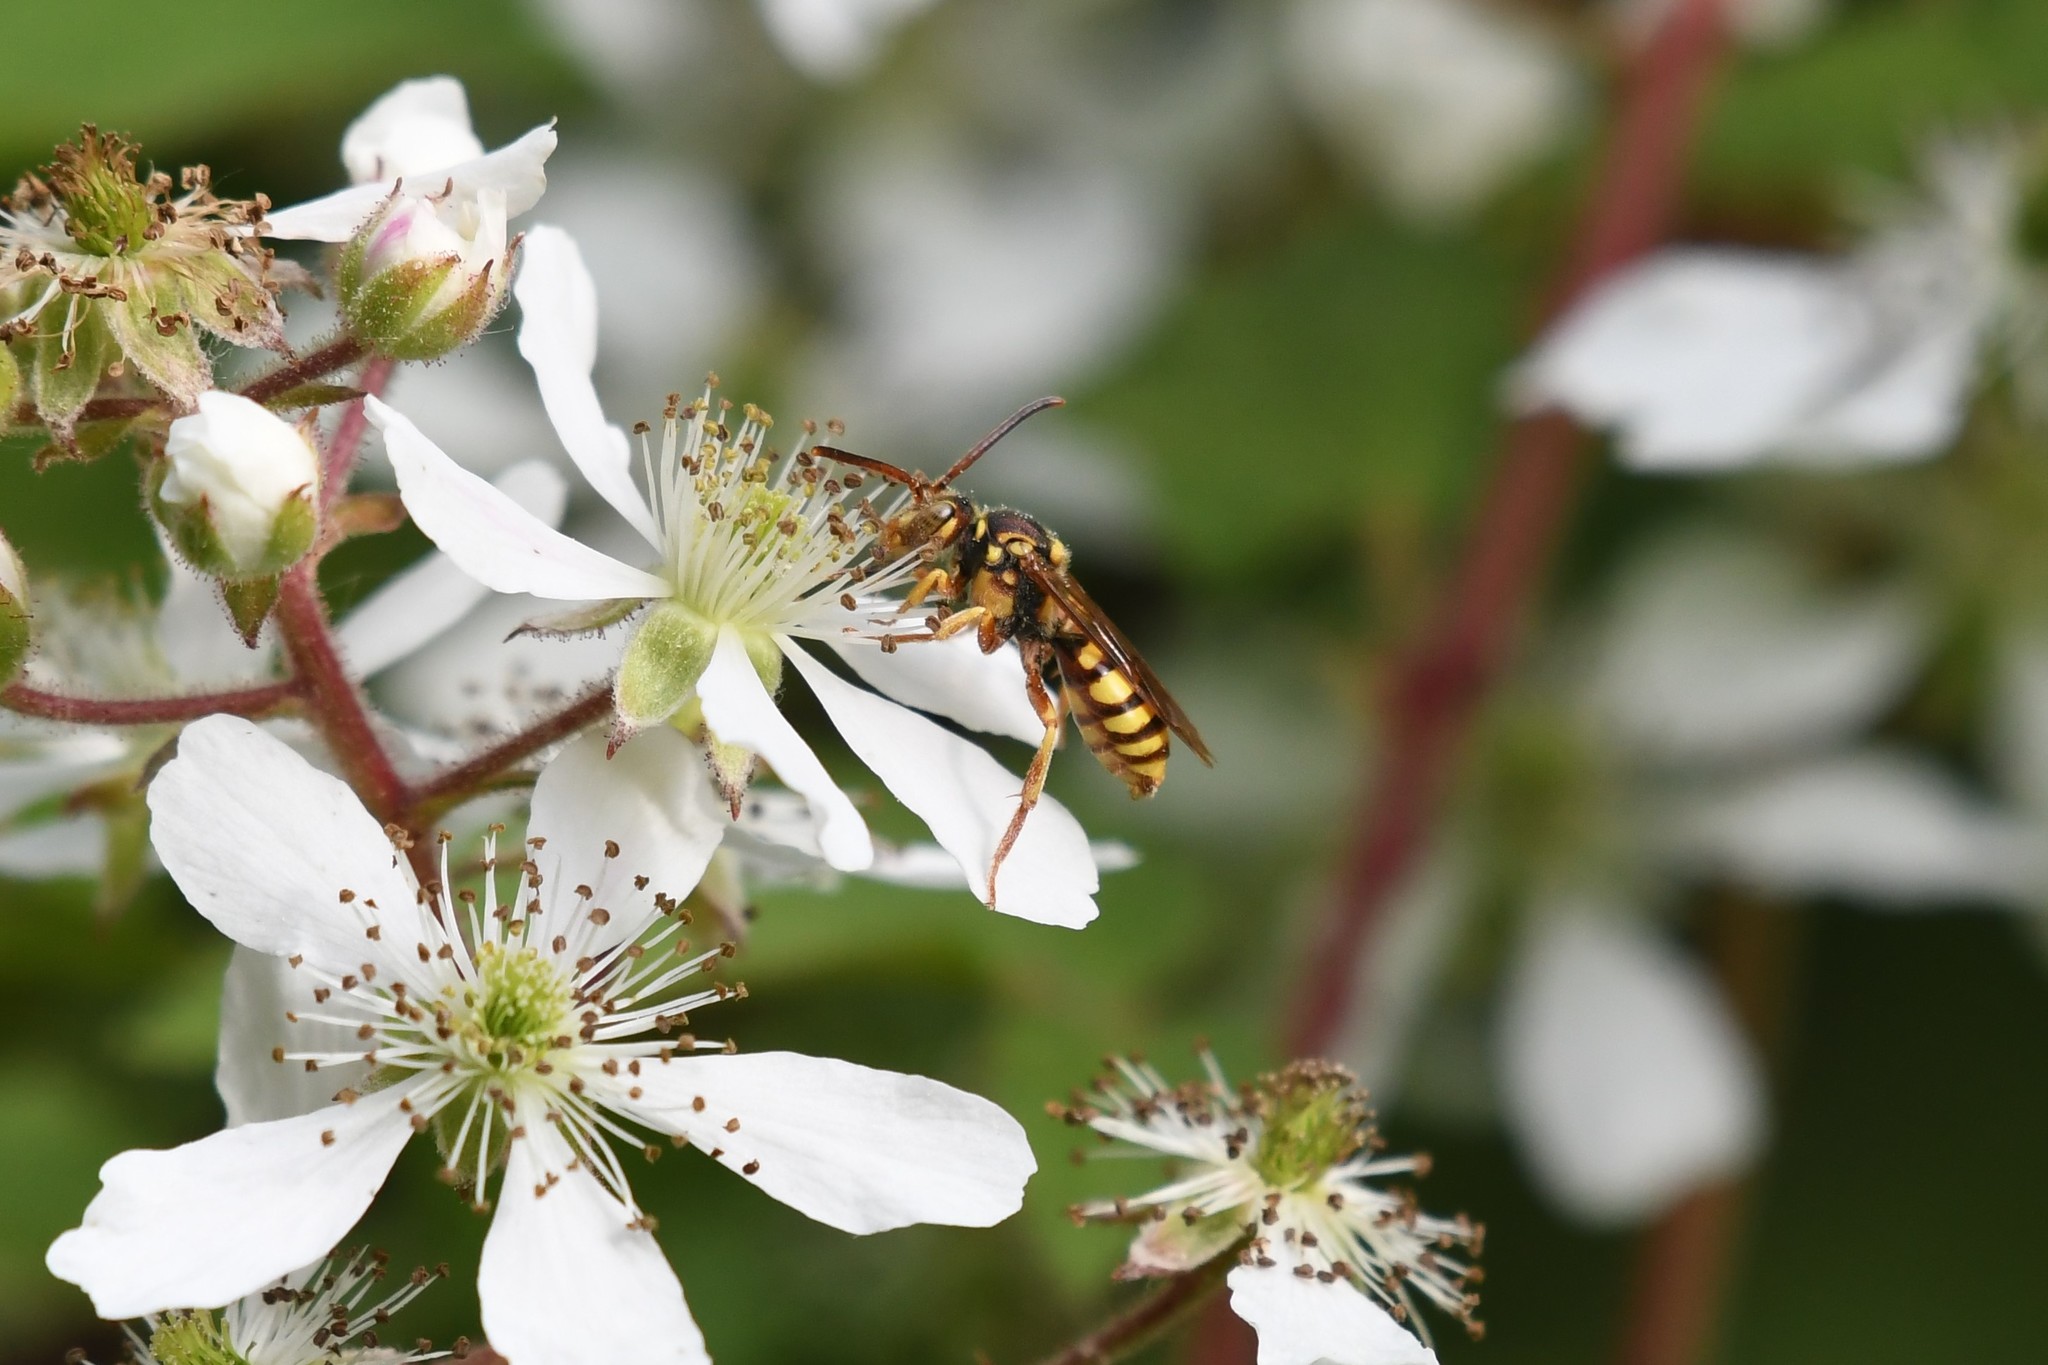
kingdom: Animalia
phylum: Arthropoda
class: Insecta
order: Hymenoptera
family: Apidae
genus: Nomada
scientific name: Nomada luteoloides
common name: Black-and-yellow nomad bee
